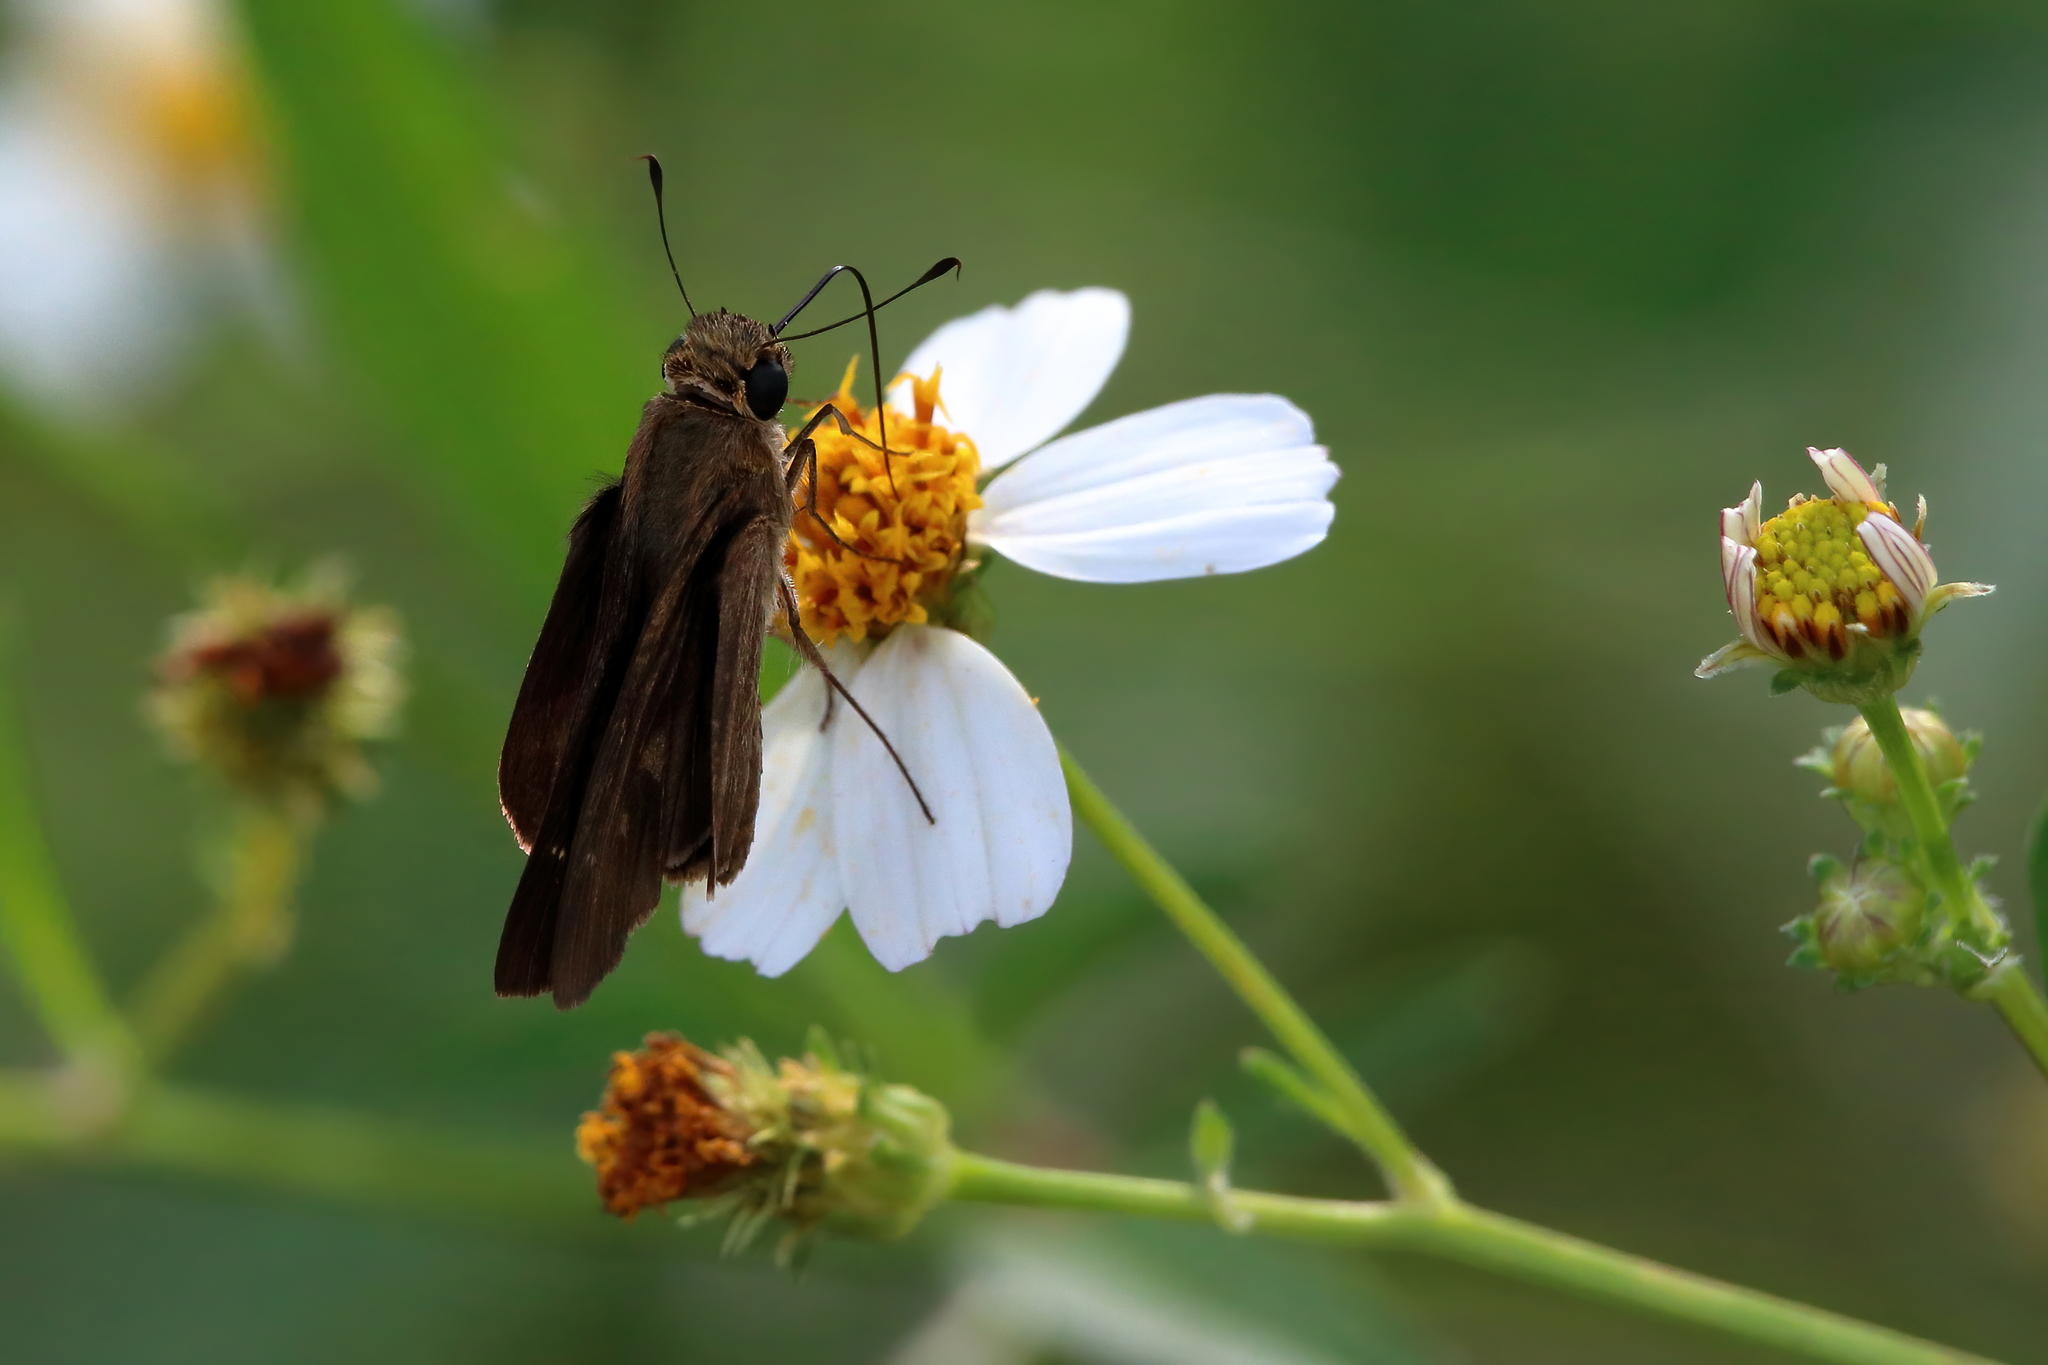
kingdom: Animalia
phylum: Arthropoda
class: Insecta
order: Lepidoptera
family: Hesperiidae
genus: Panoquina
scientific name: Panoquina ocola
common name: Ocola skipper
